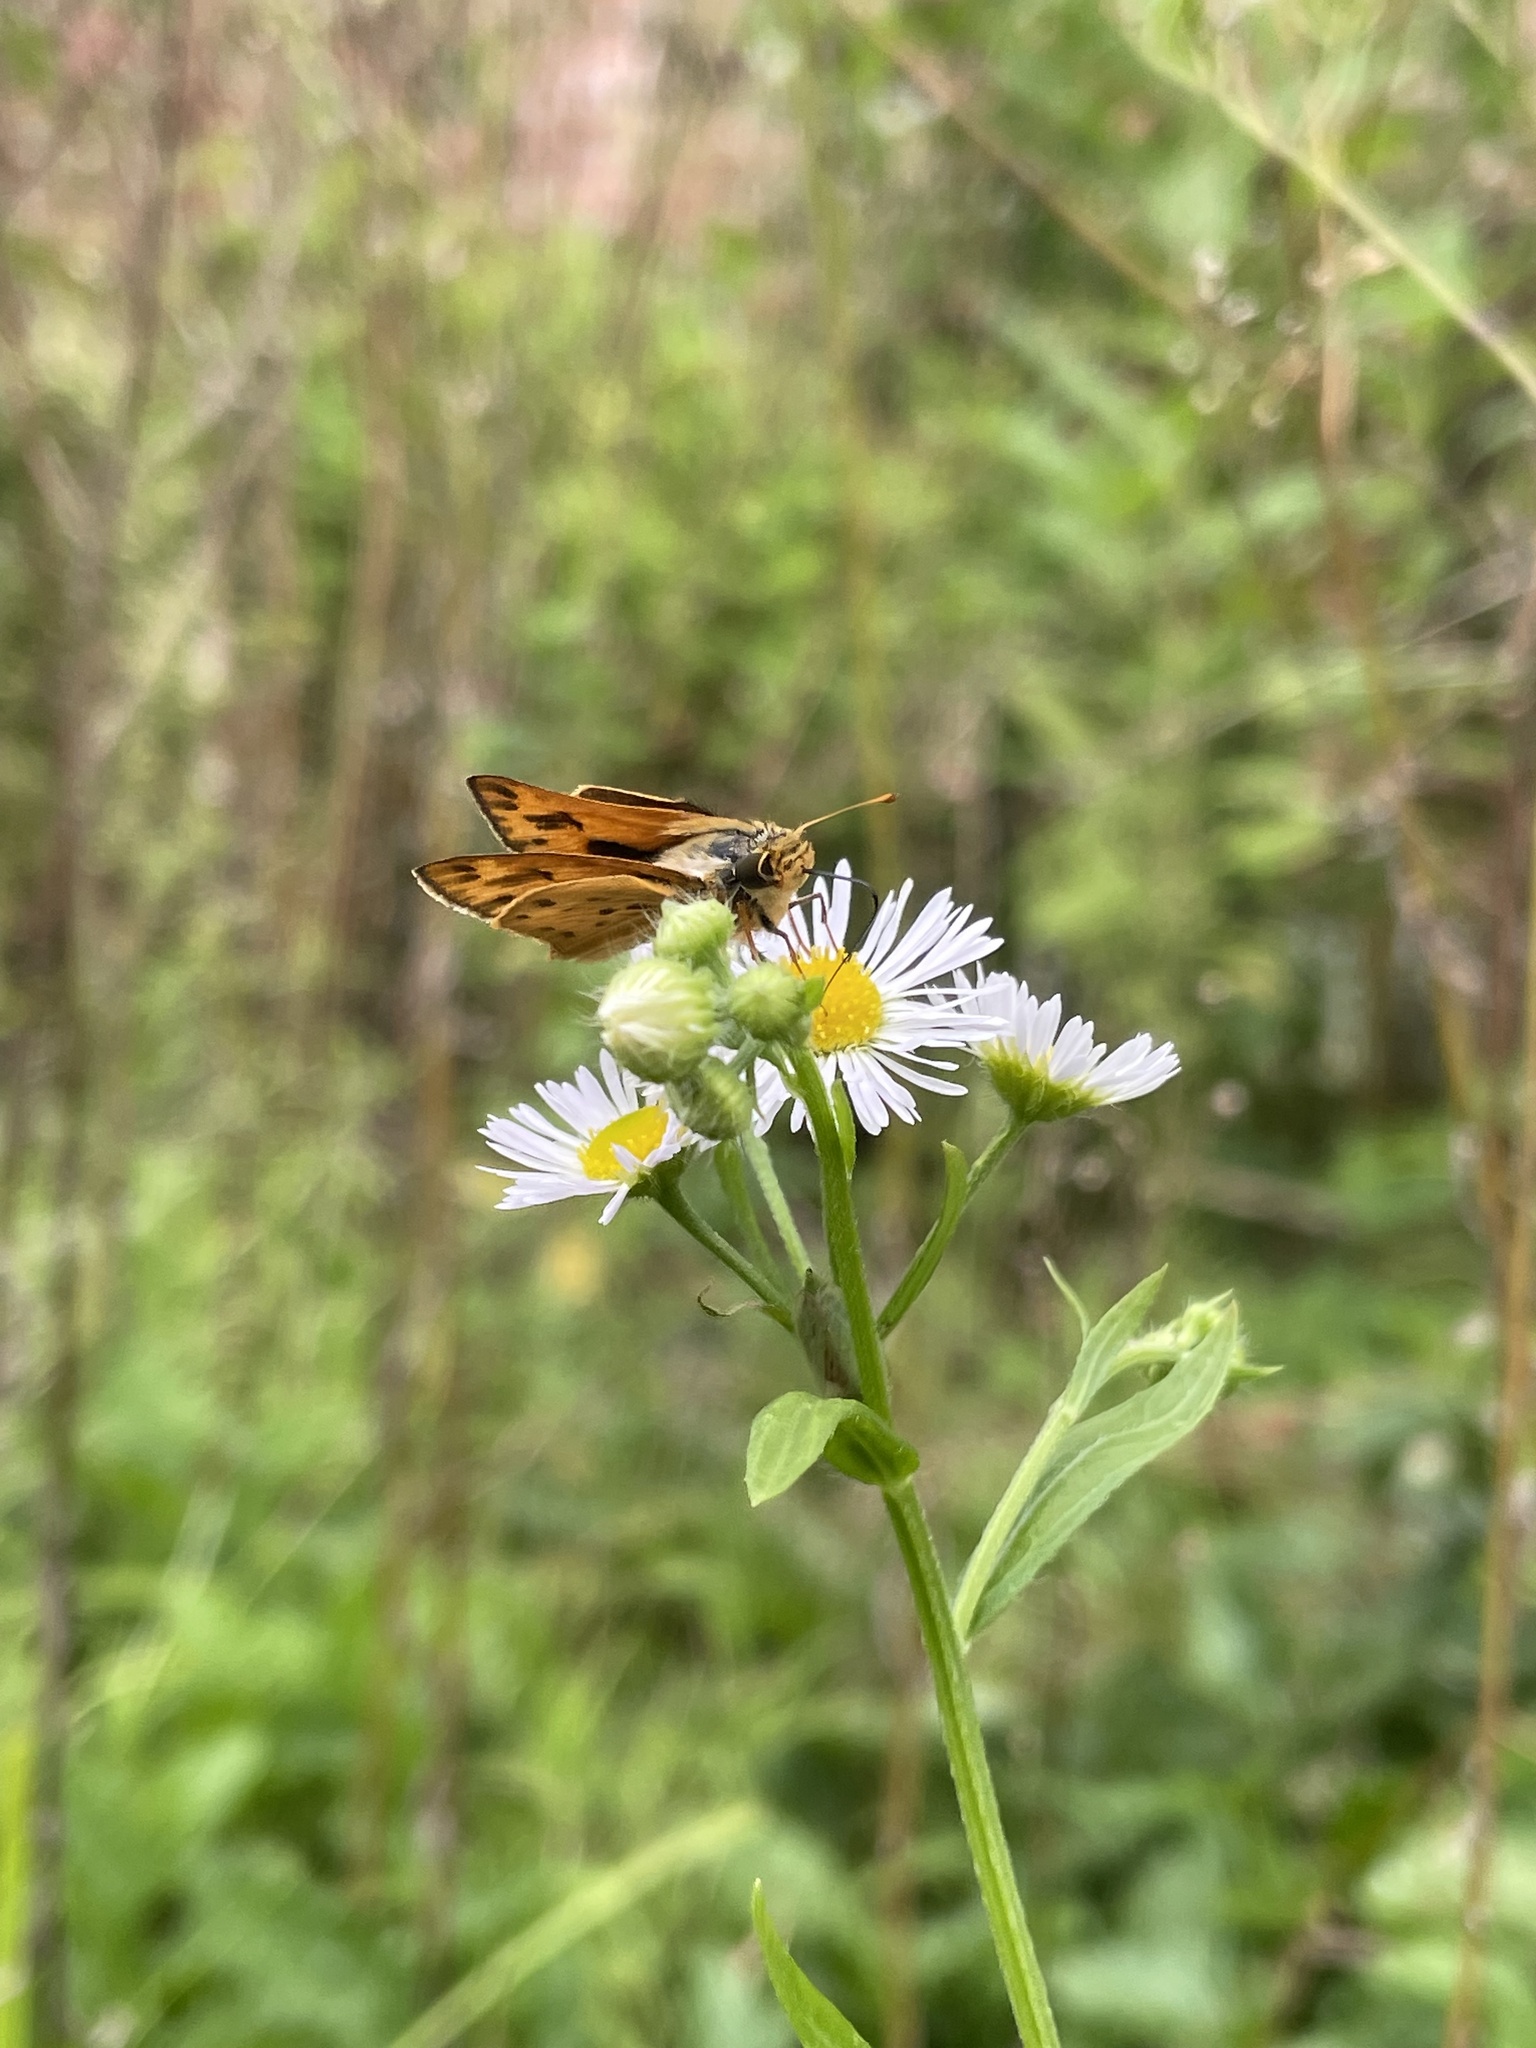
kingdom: Animalia
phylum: Arthropoda
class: Insecta
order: Lepidoptera
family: Hesperiidae
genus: Hylephila
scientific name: Hylephila phyleus
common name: Fiery skipper
